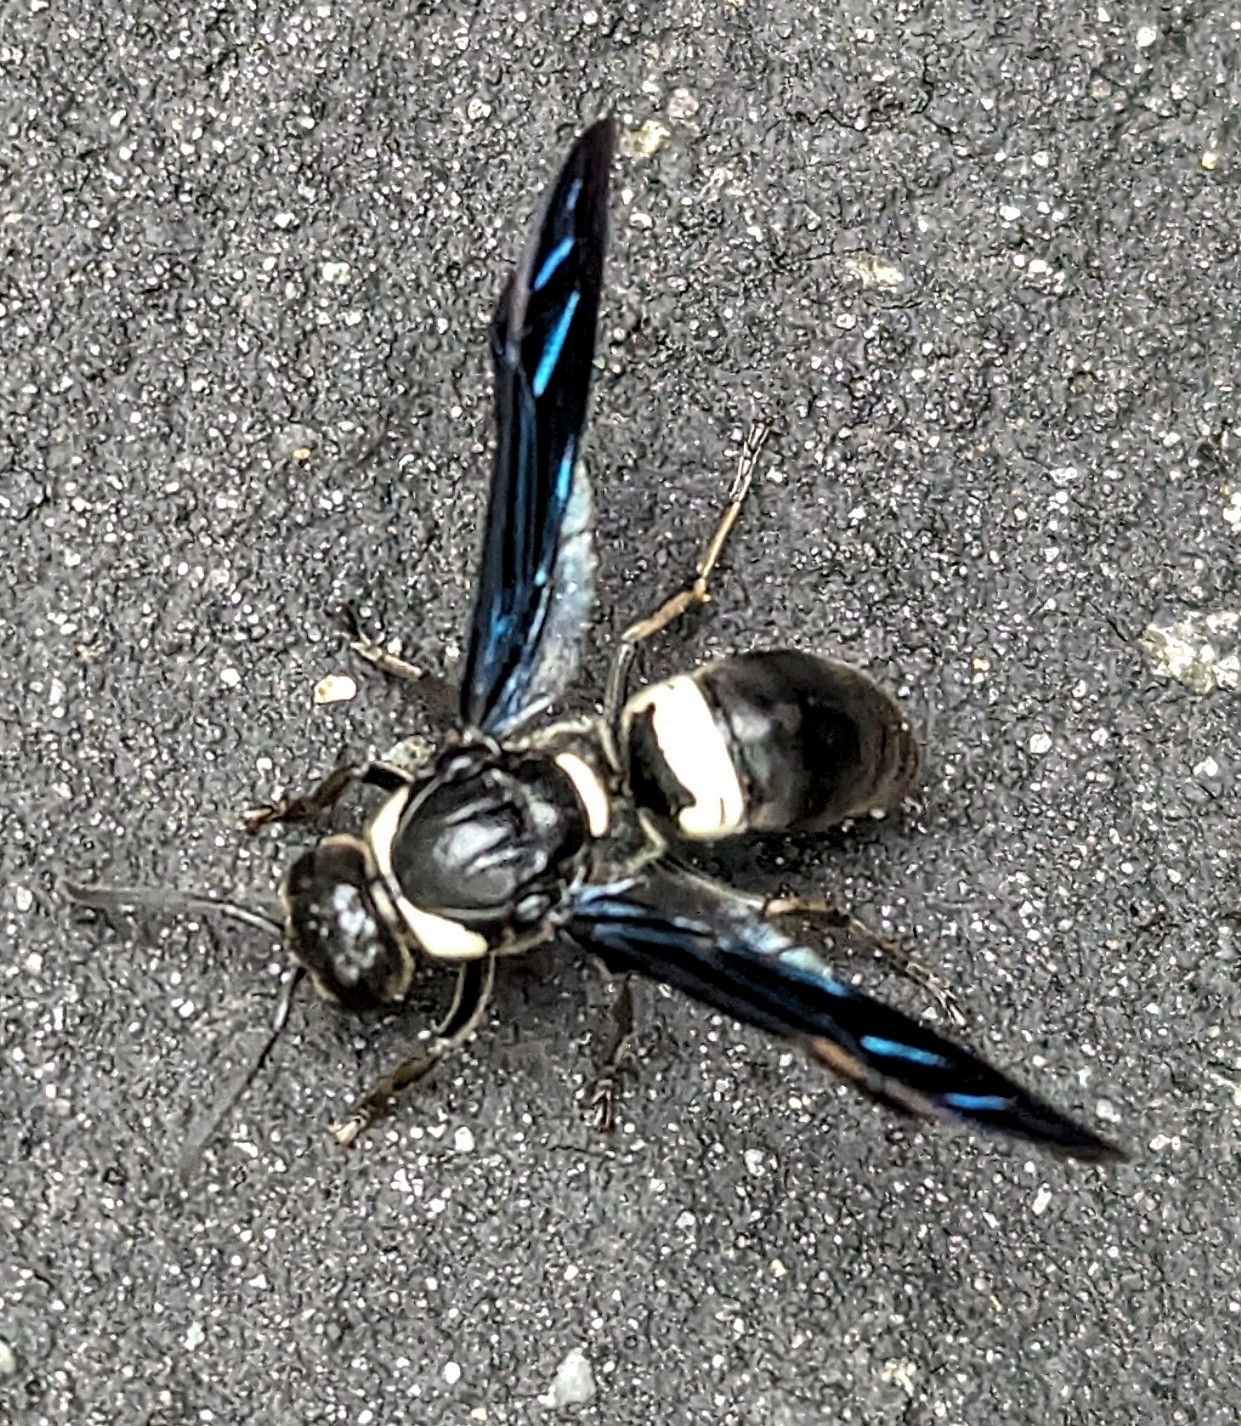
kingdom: Animalia
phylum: Arthropoda
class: Insecta
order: Hymenoptera
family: Eumenidae
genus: Monobia
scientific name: Monobia quadridens
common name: Four-toothed mason wasp
